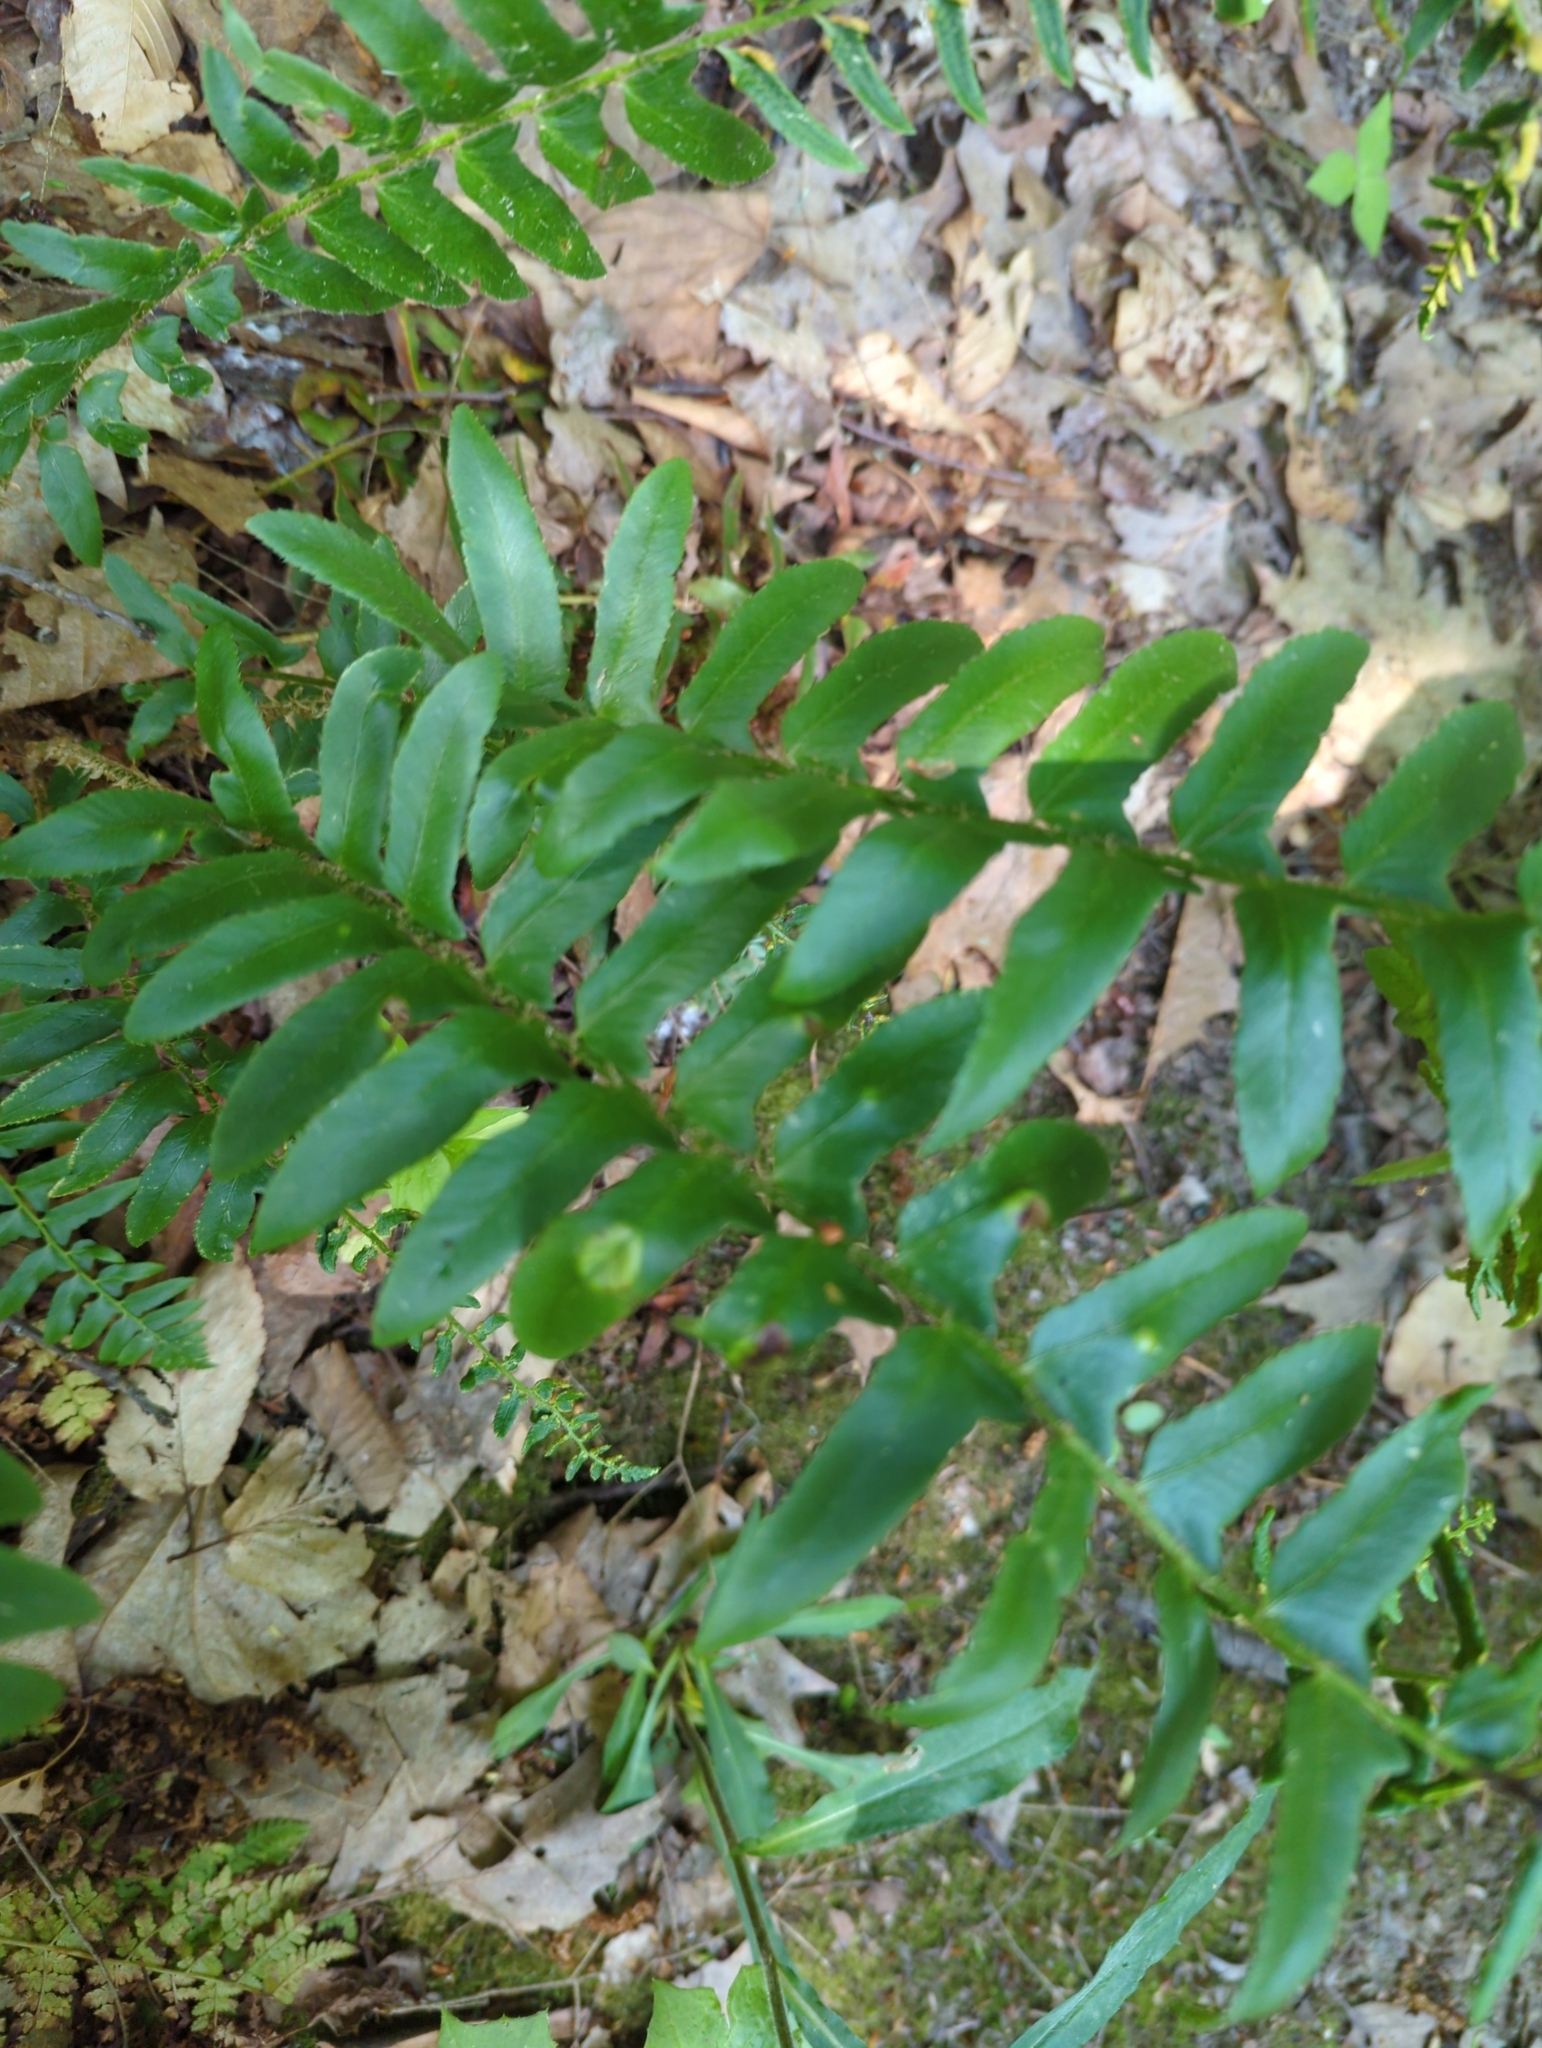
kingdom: Plantae
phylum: Tracheophyta
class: Polypodiopsida
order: Polypodiales
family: Dryopteridaceae
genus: Polystichum
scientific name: Polystichum acrostichoides
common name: Christmas fern
